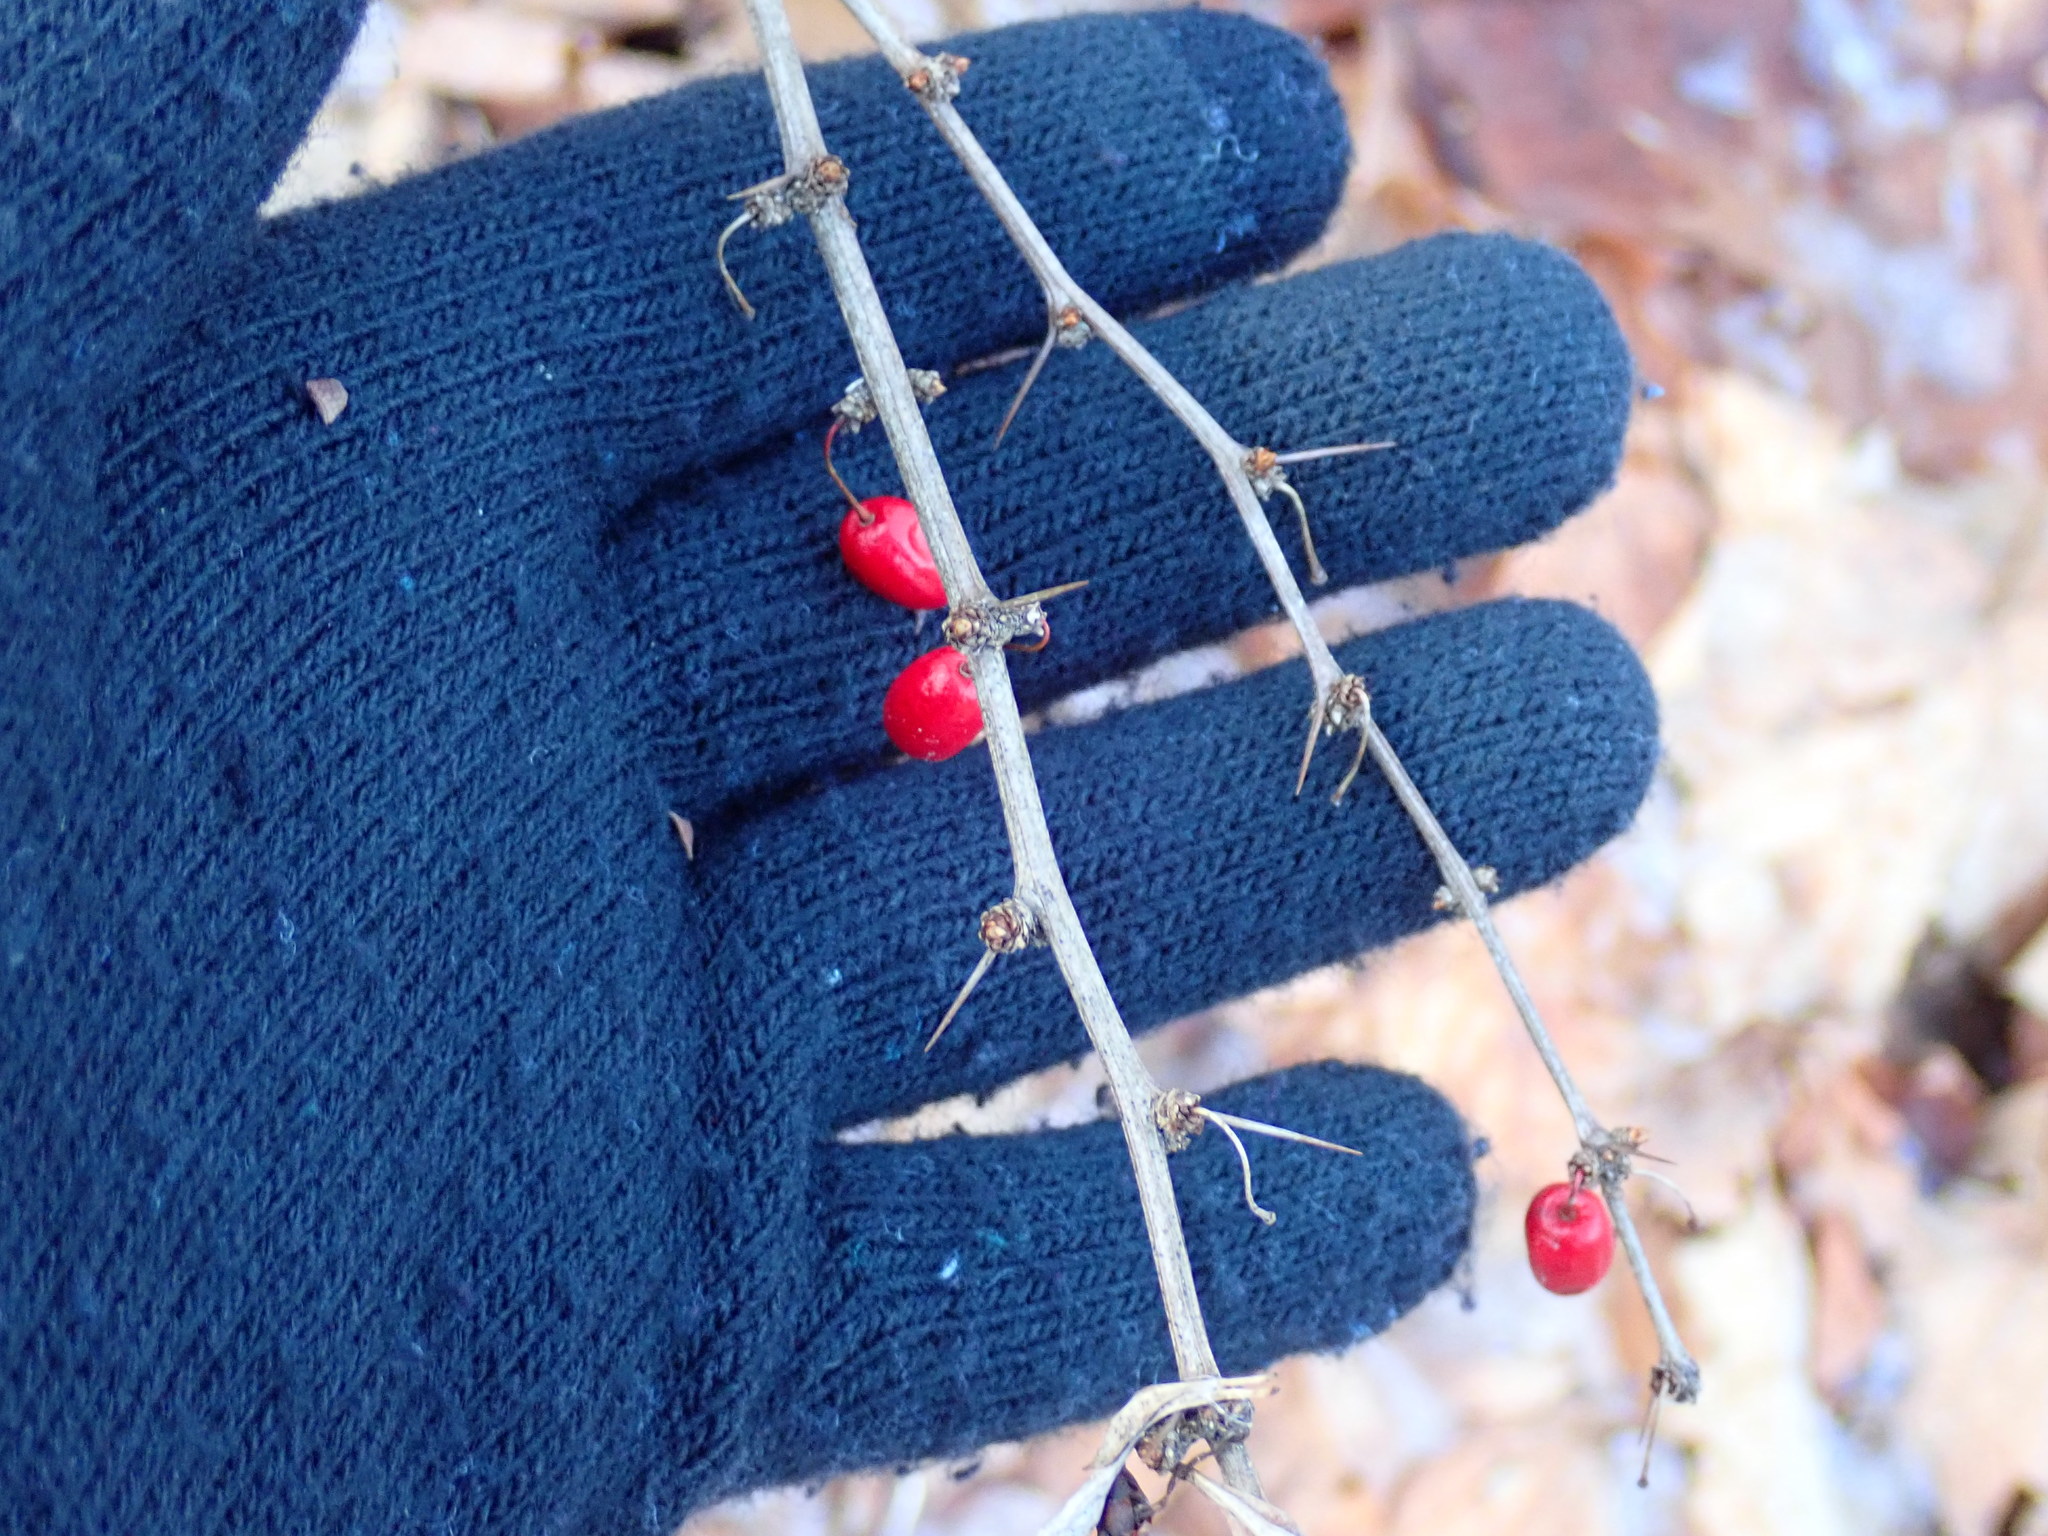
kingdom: Plantae
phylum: Tracheophyta
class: Magnoliopsida
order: Ranunculales
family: Berberidaceae
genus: Berberis
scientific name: Berberis thunbergii
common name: Japanese barberry
